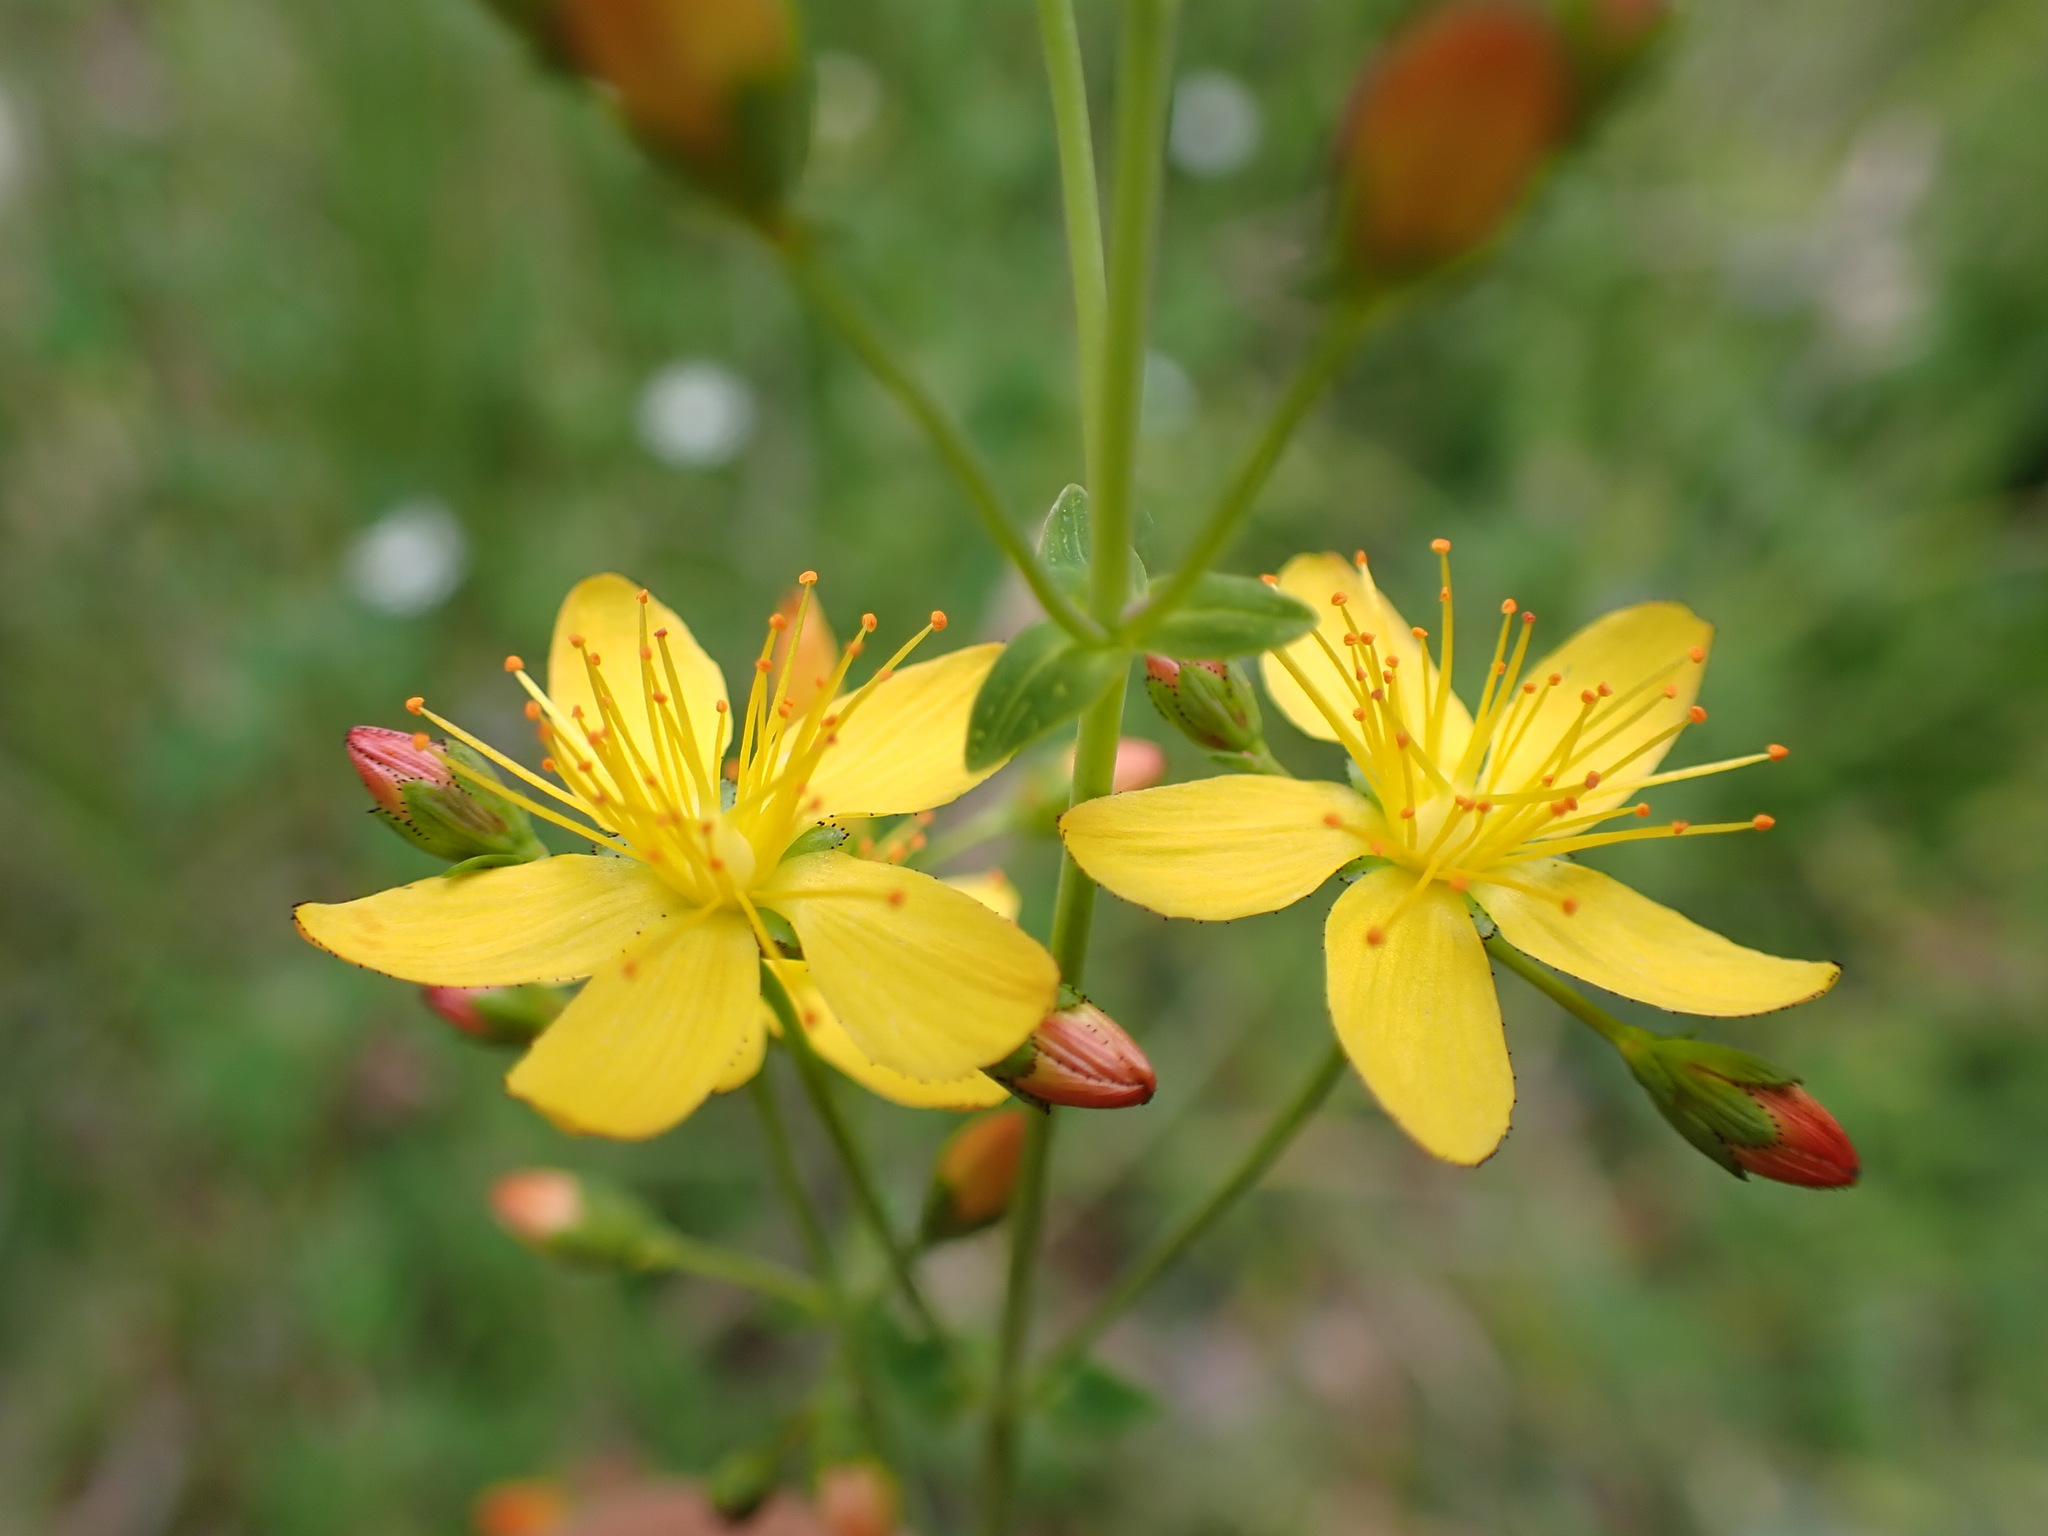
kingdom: Plantae
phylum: Tracheophyta
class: Magnoliopsida
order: Malpighiales
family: Hypericaceae
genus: Hypericum
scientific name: Hypericum pulchrum
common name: Slender st. john's-wort
